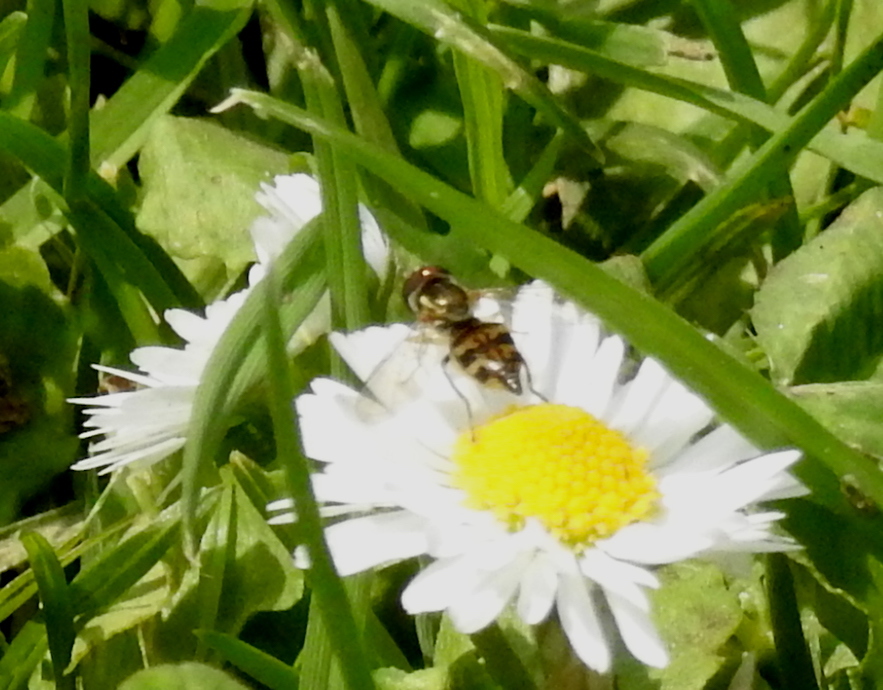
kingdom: Animalia
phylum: Arthropoda
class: Insecta
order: Diptera
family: Syrphidae
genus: Toxomerus
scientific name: Toxomerus occidentalis
